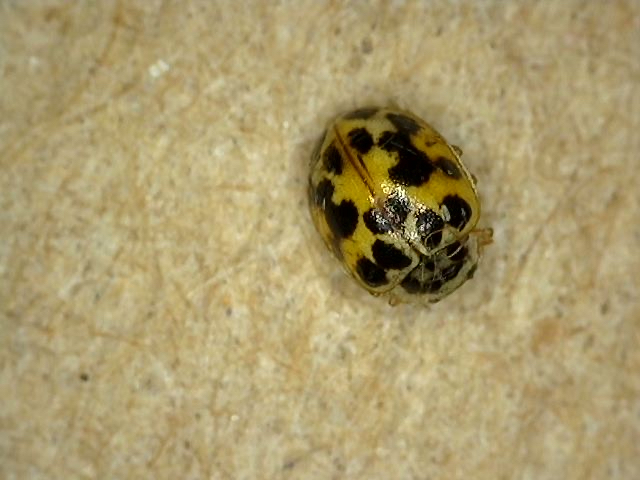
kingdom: Animalia
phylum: Arthropoda
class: Insecta
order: Coleoptera
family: Coccinellidae
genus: Psyllobora
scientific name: Psyllobora vigintimaculata
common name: Ladybird beetle
